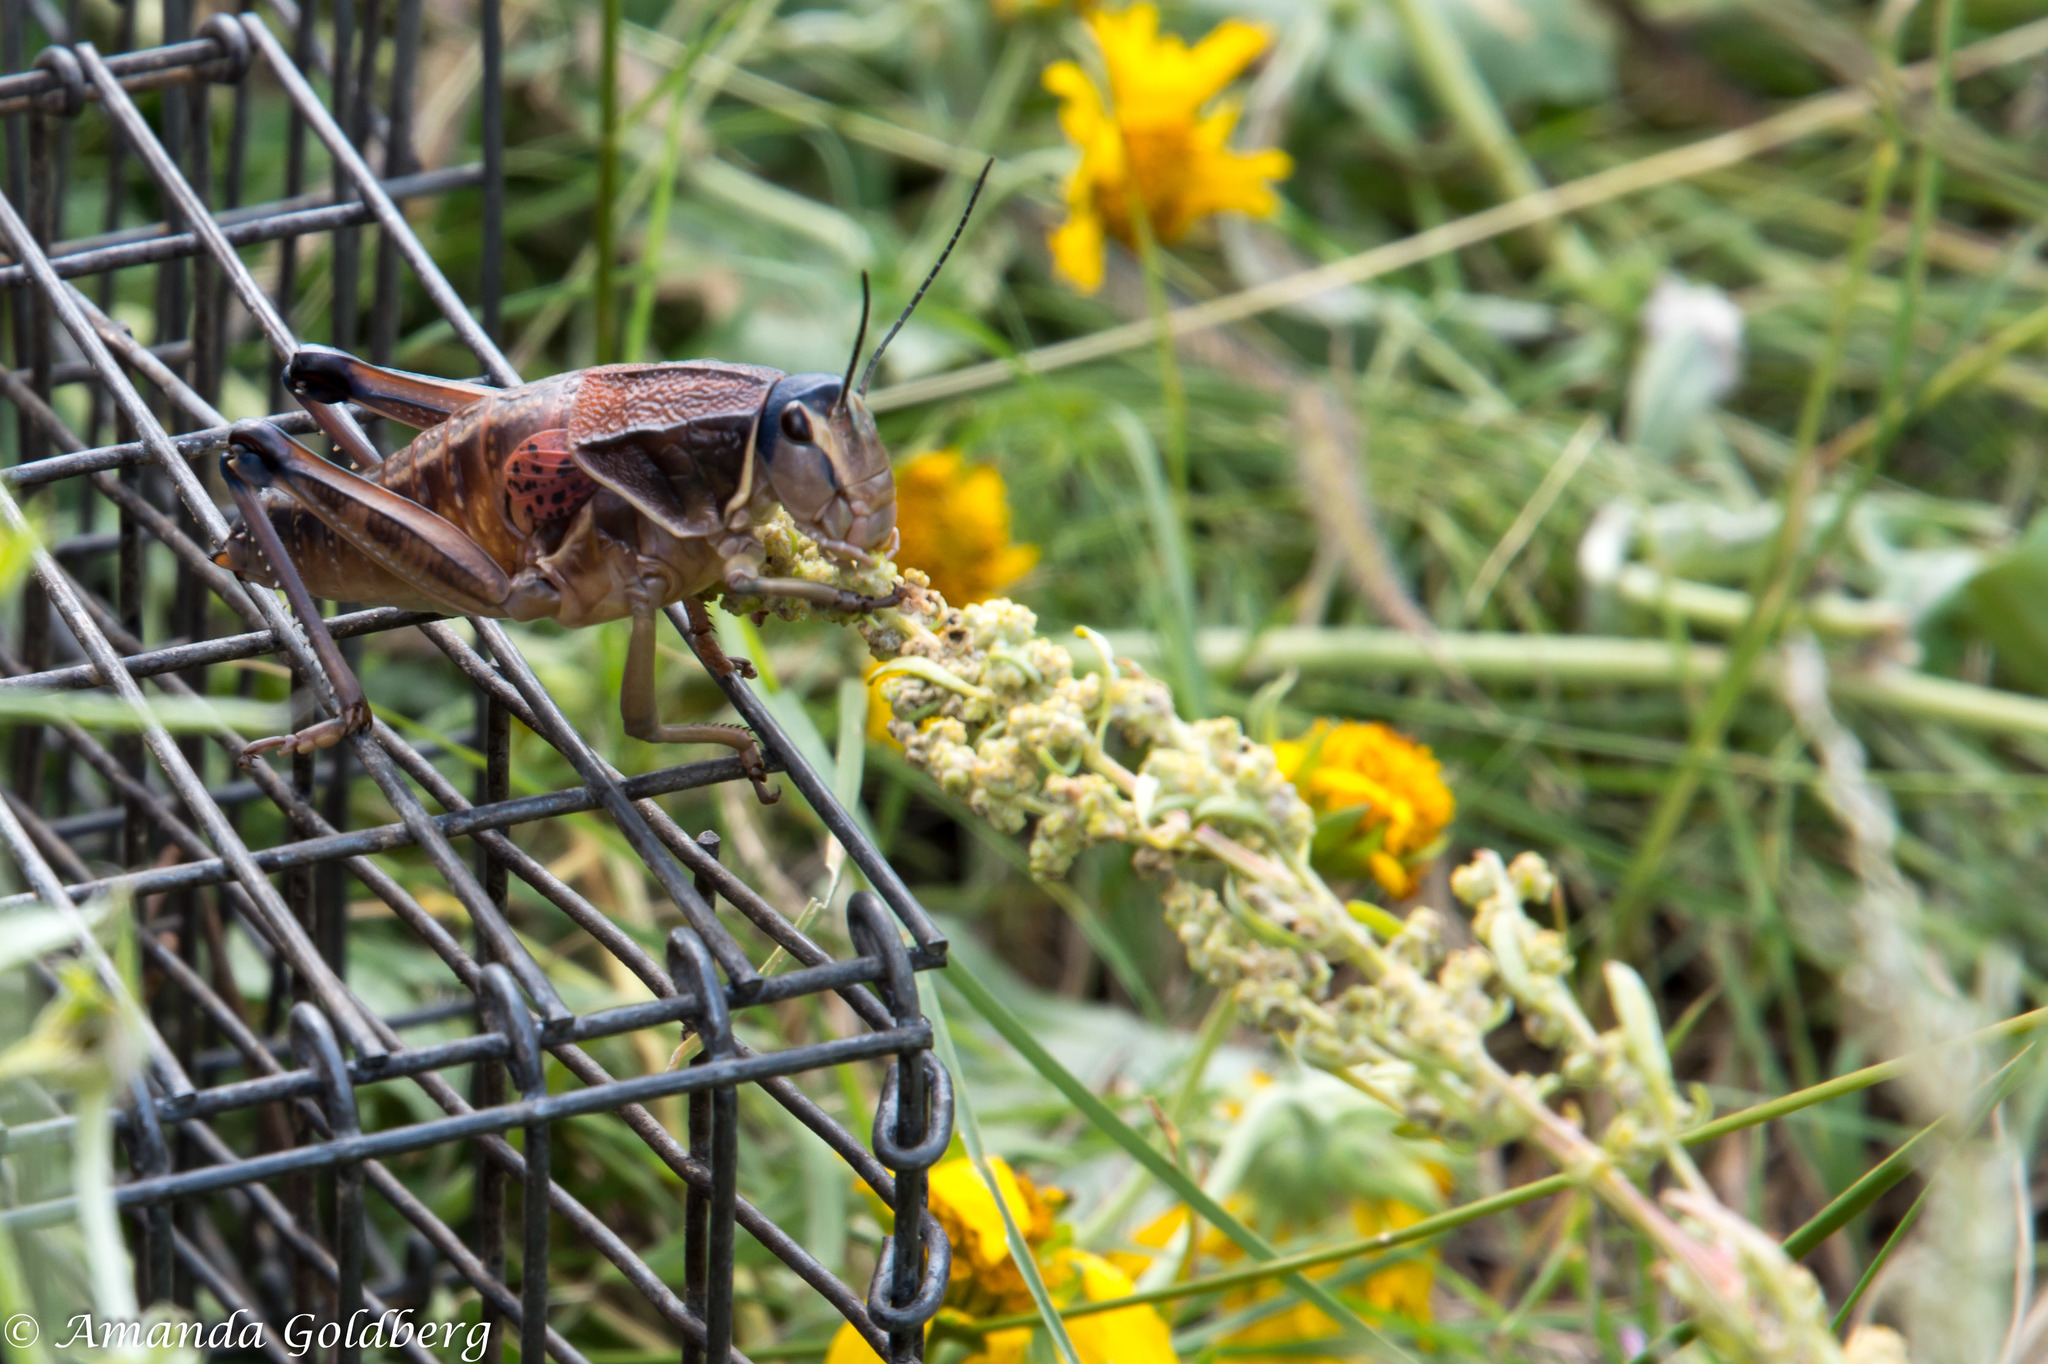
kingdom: Animalia
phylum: Arthropoda
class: Insecta
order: Orthoptera
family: Romaleidae
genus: Brachystola
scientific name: Brachystola magna
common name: Plains lubber grasshopper
